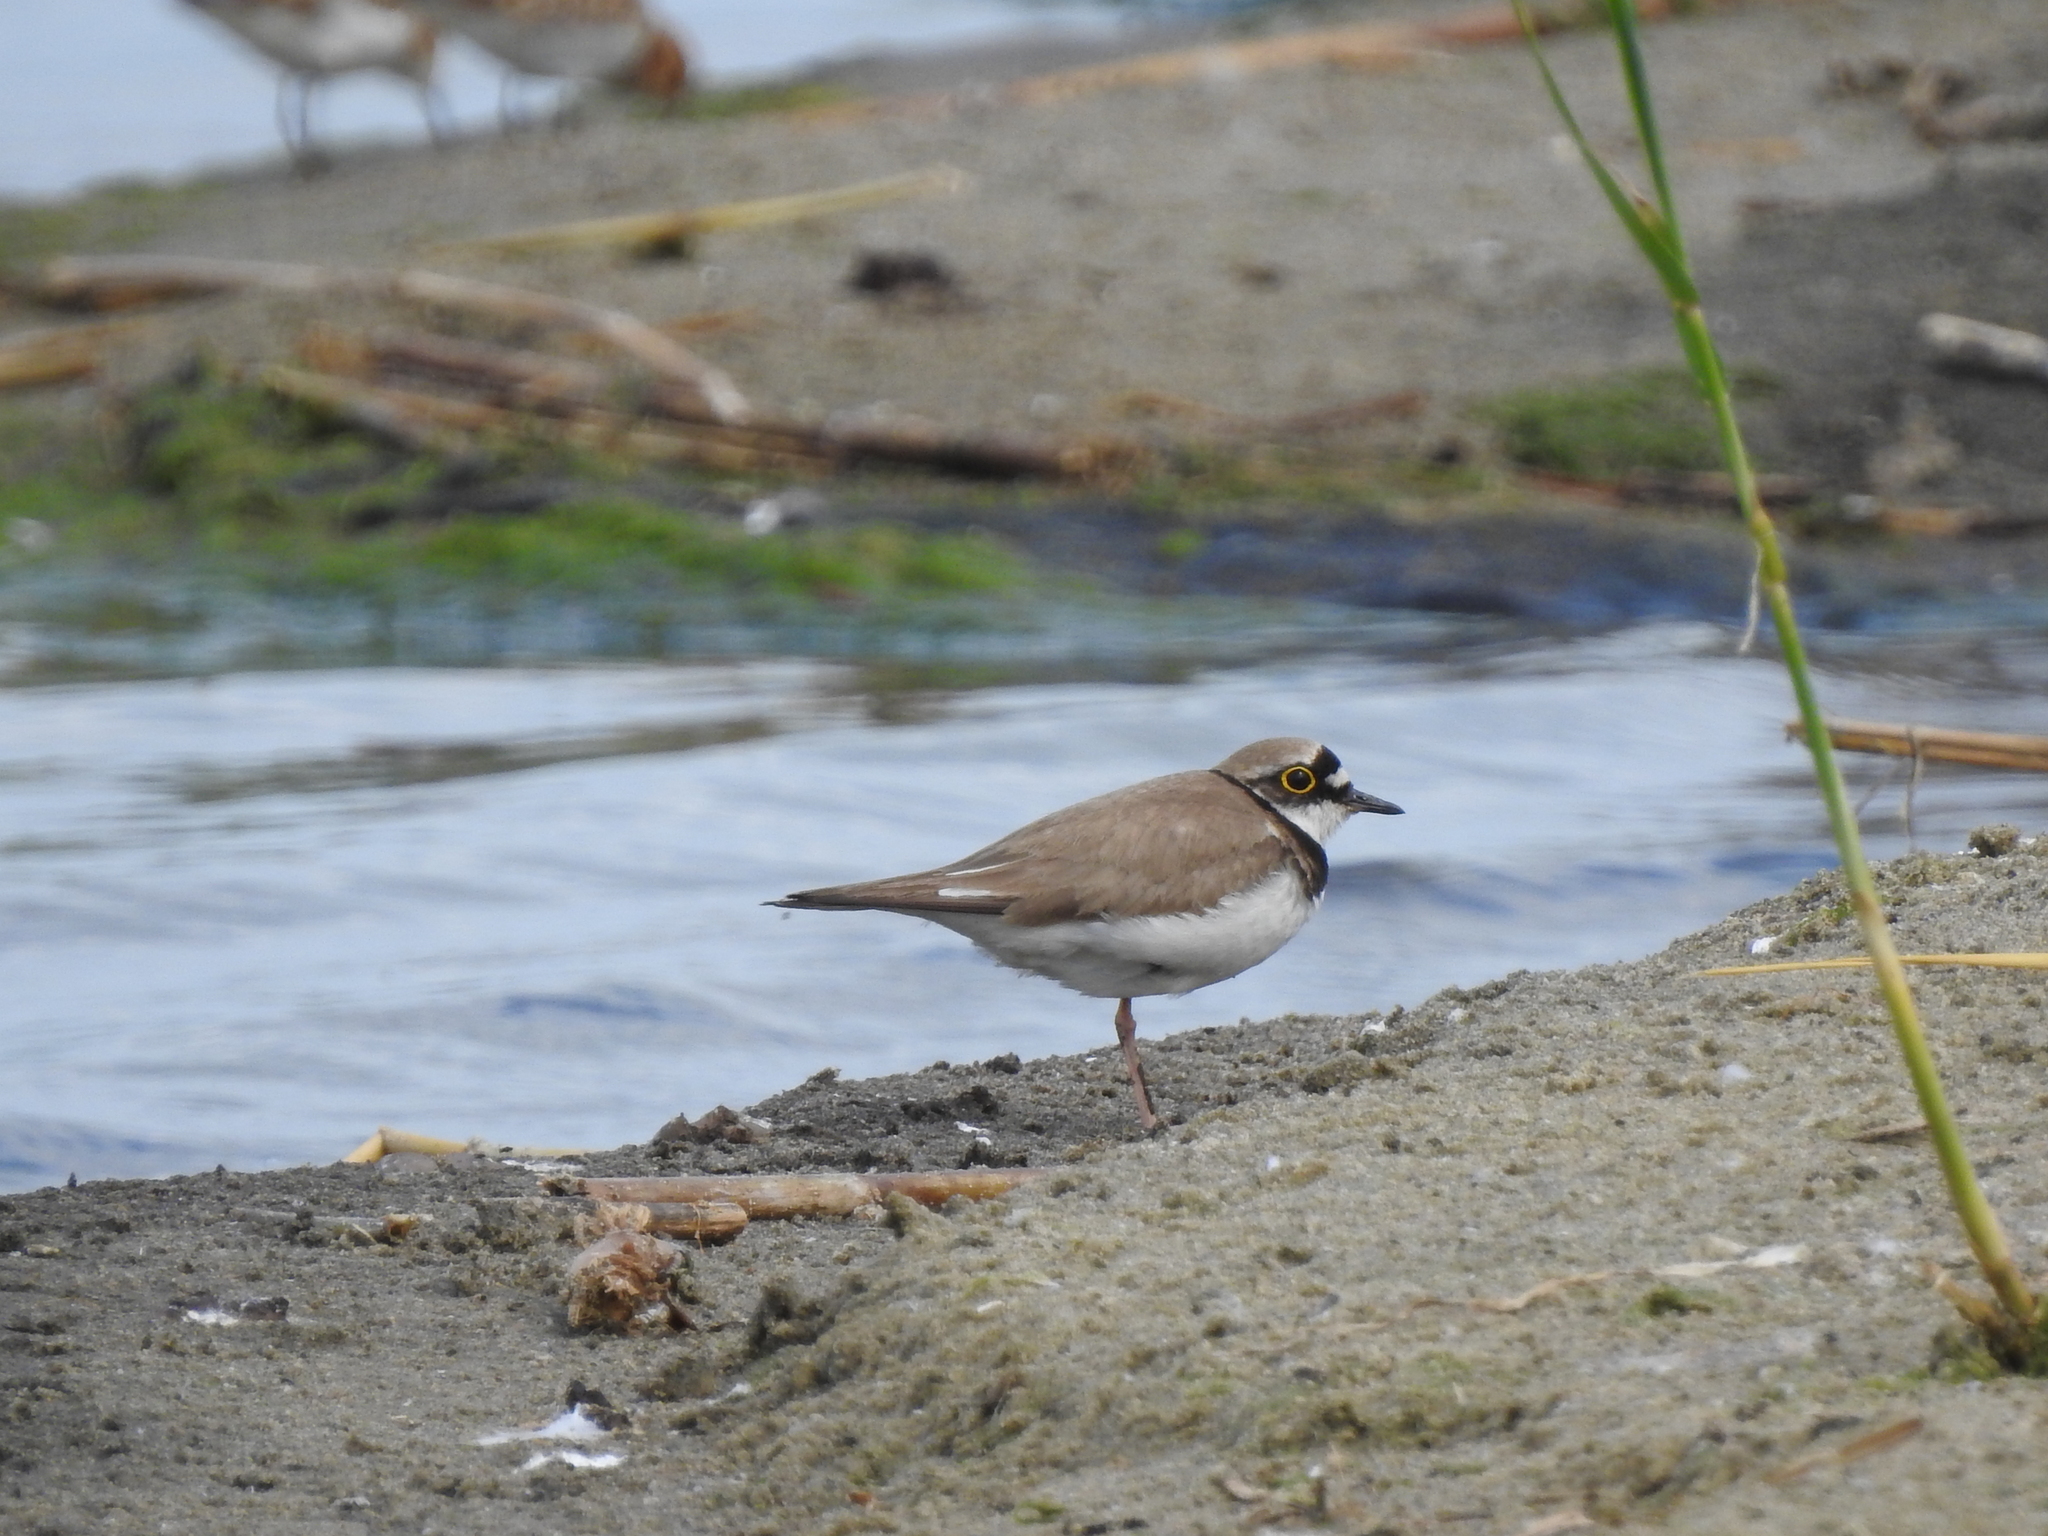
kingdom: Animalia
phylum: Chordata
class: Aves
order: Charadriiformes
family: Charadriidae
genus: Charadrius
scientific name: Charadrius dubius
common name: Little ringed plover
